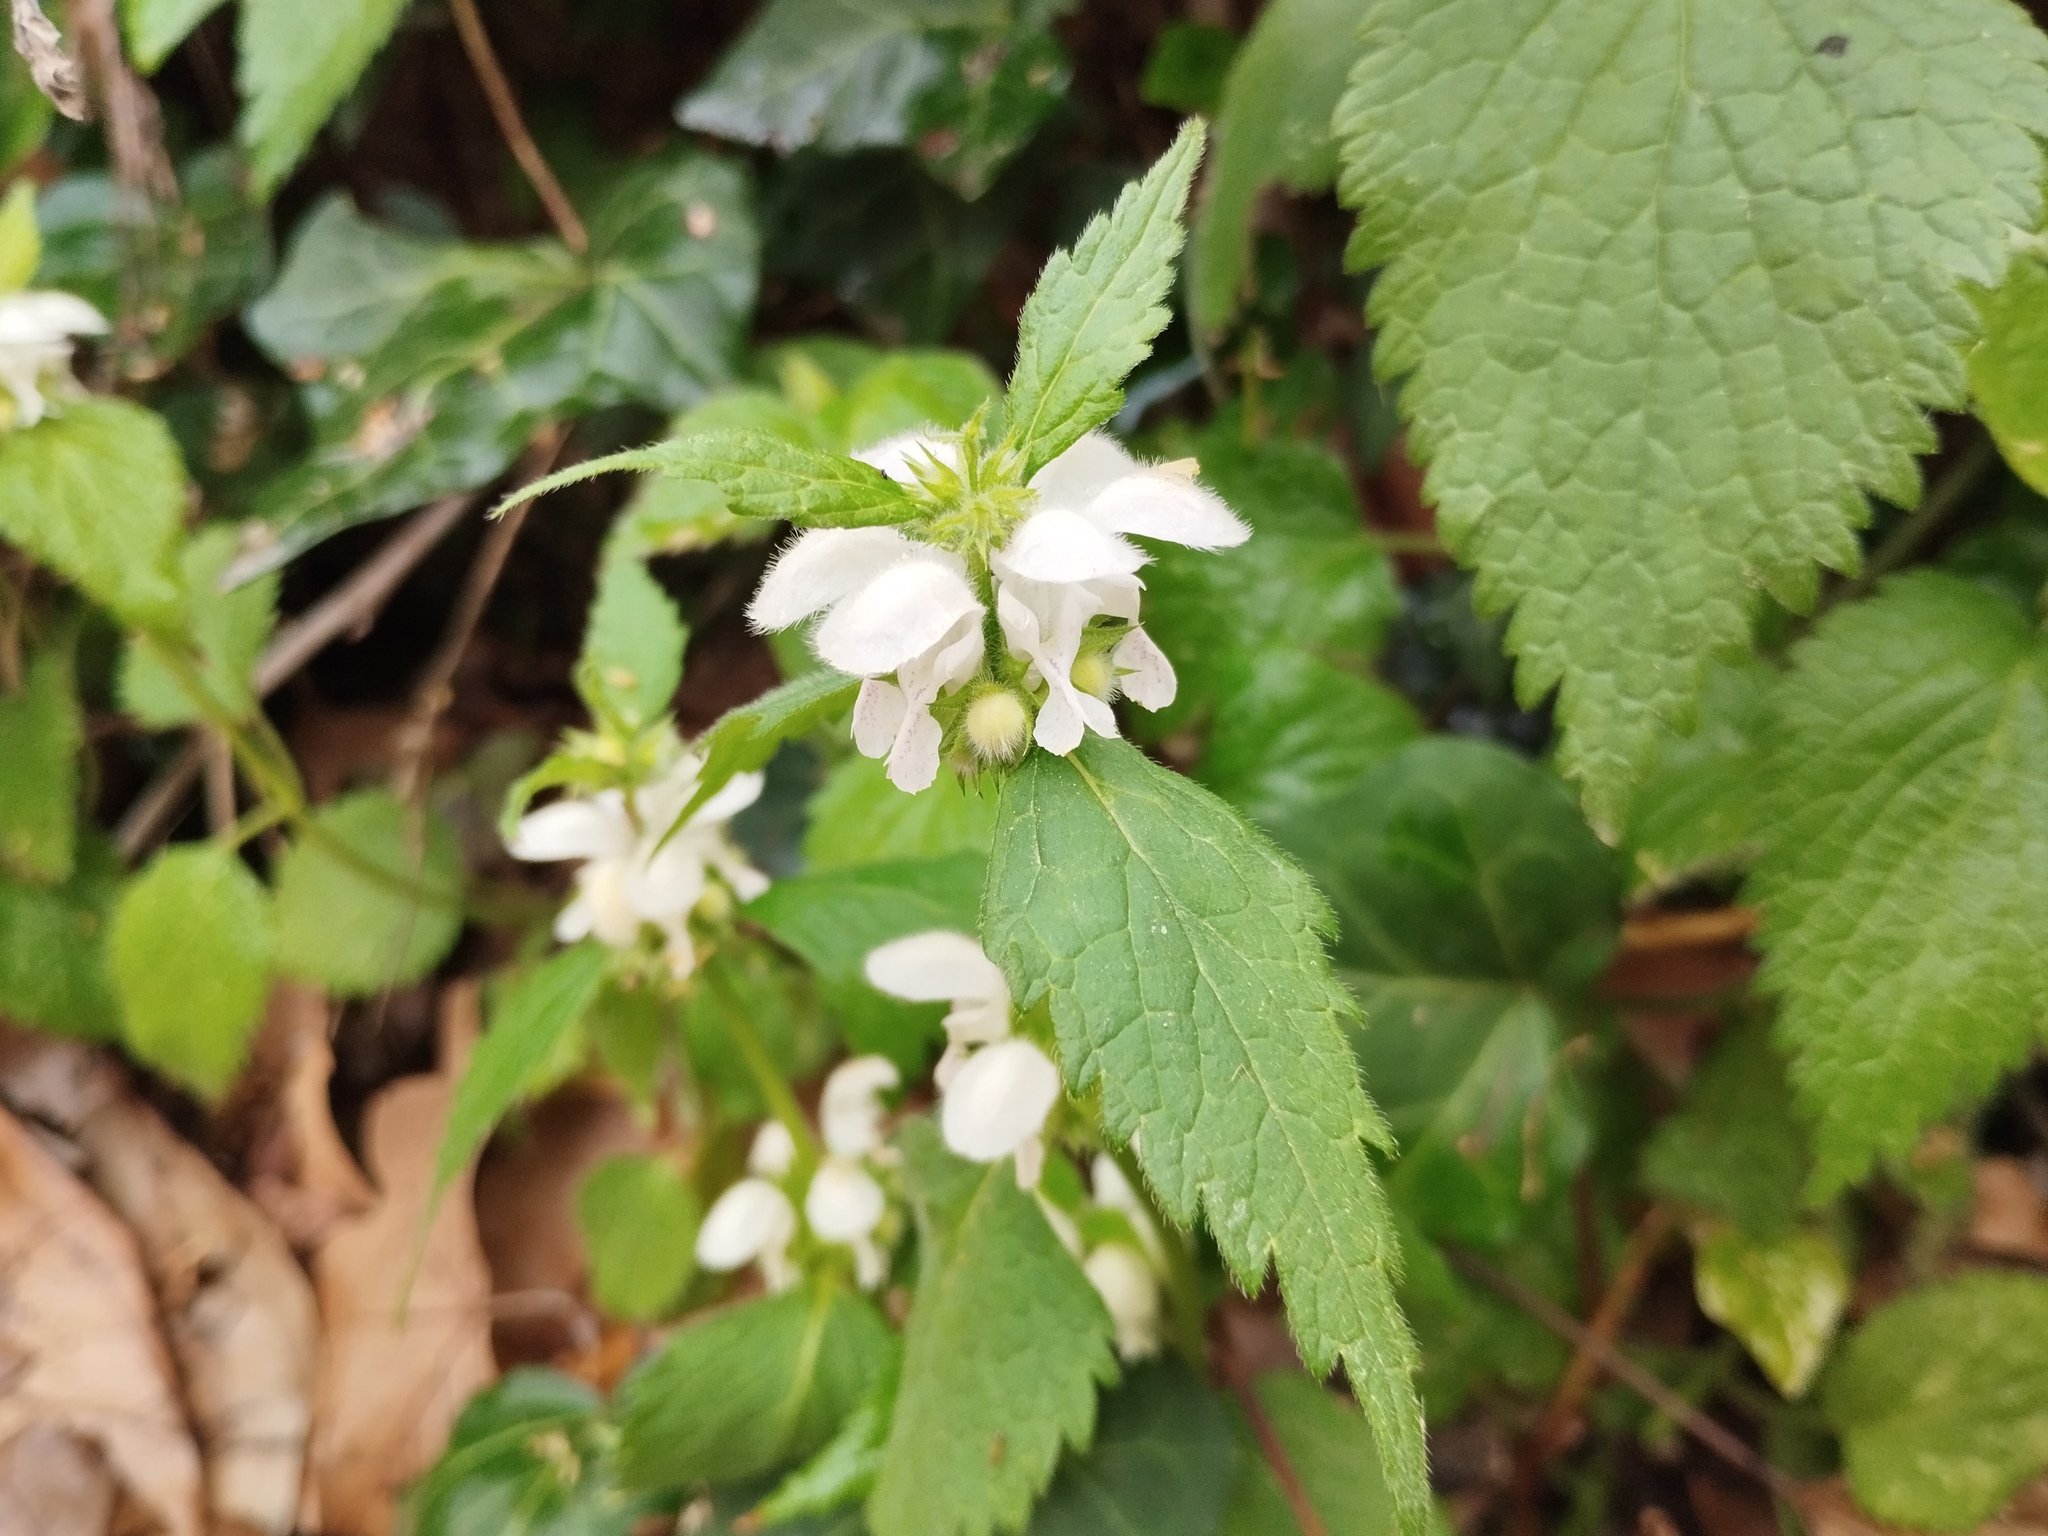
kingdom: Plantae
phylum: Tracheophyta
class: Magnoliopsida
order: Lamiales
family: Lamiaceae
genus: Lamium
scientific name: Lamium flexuosum
